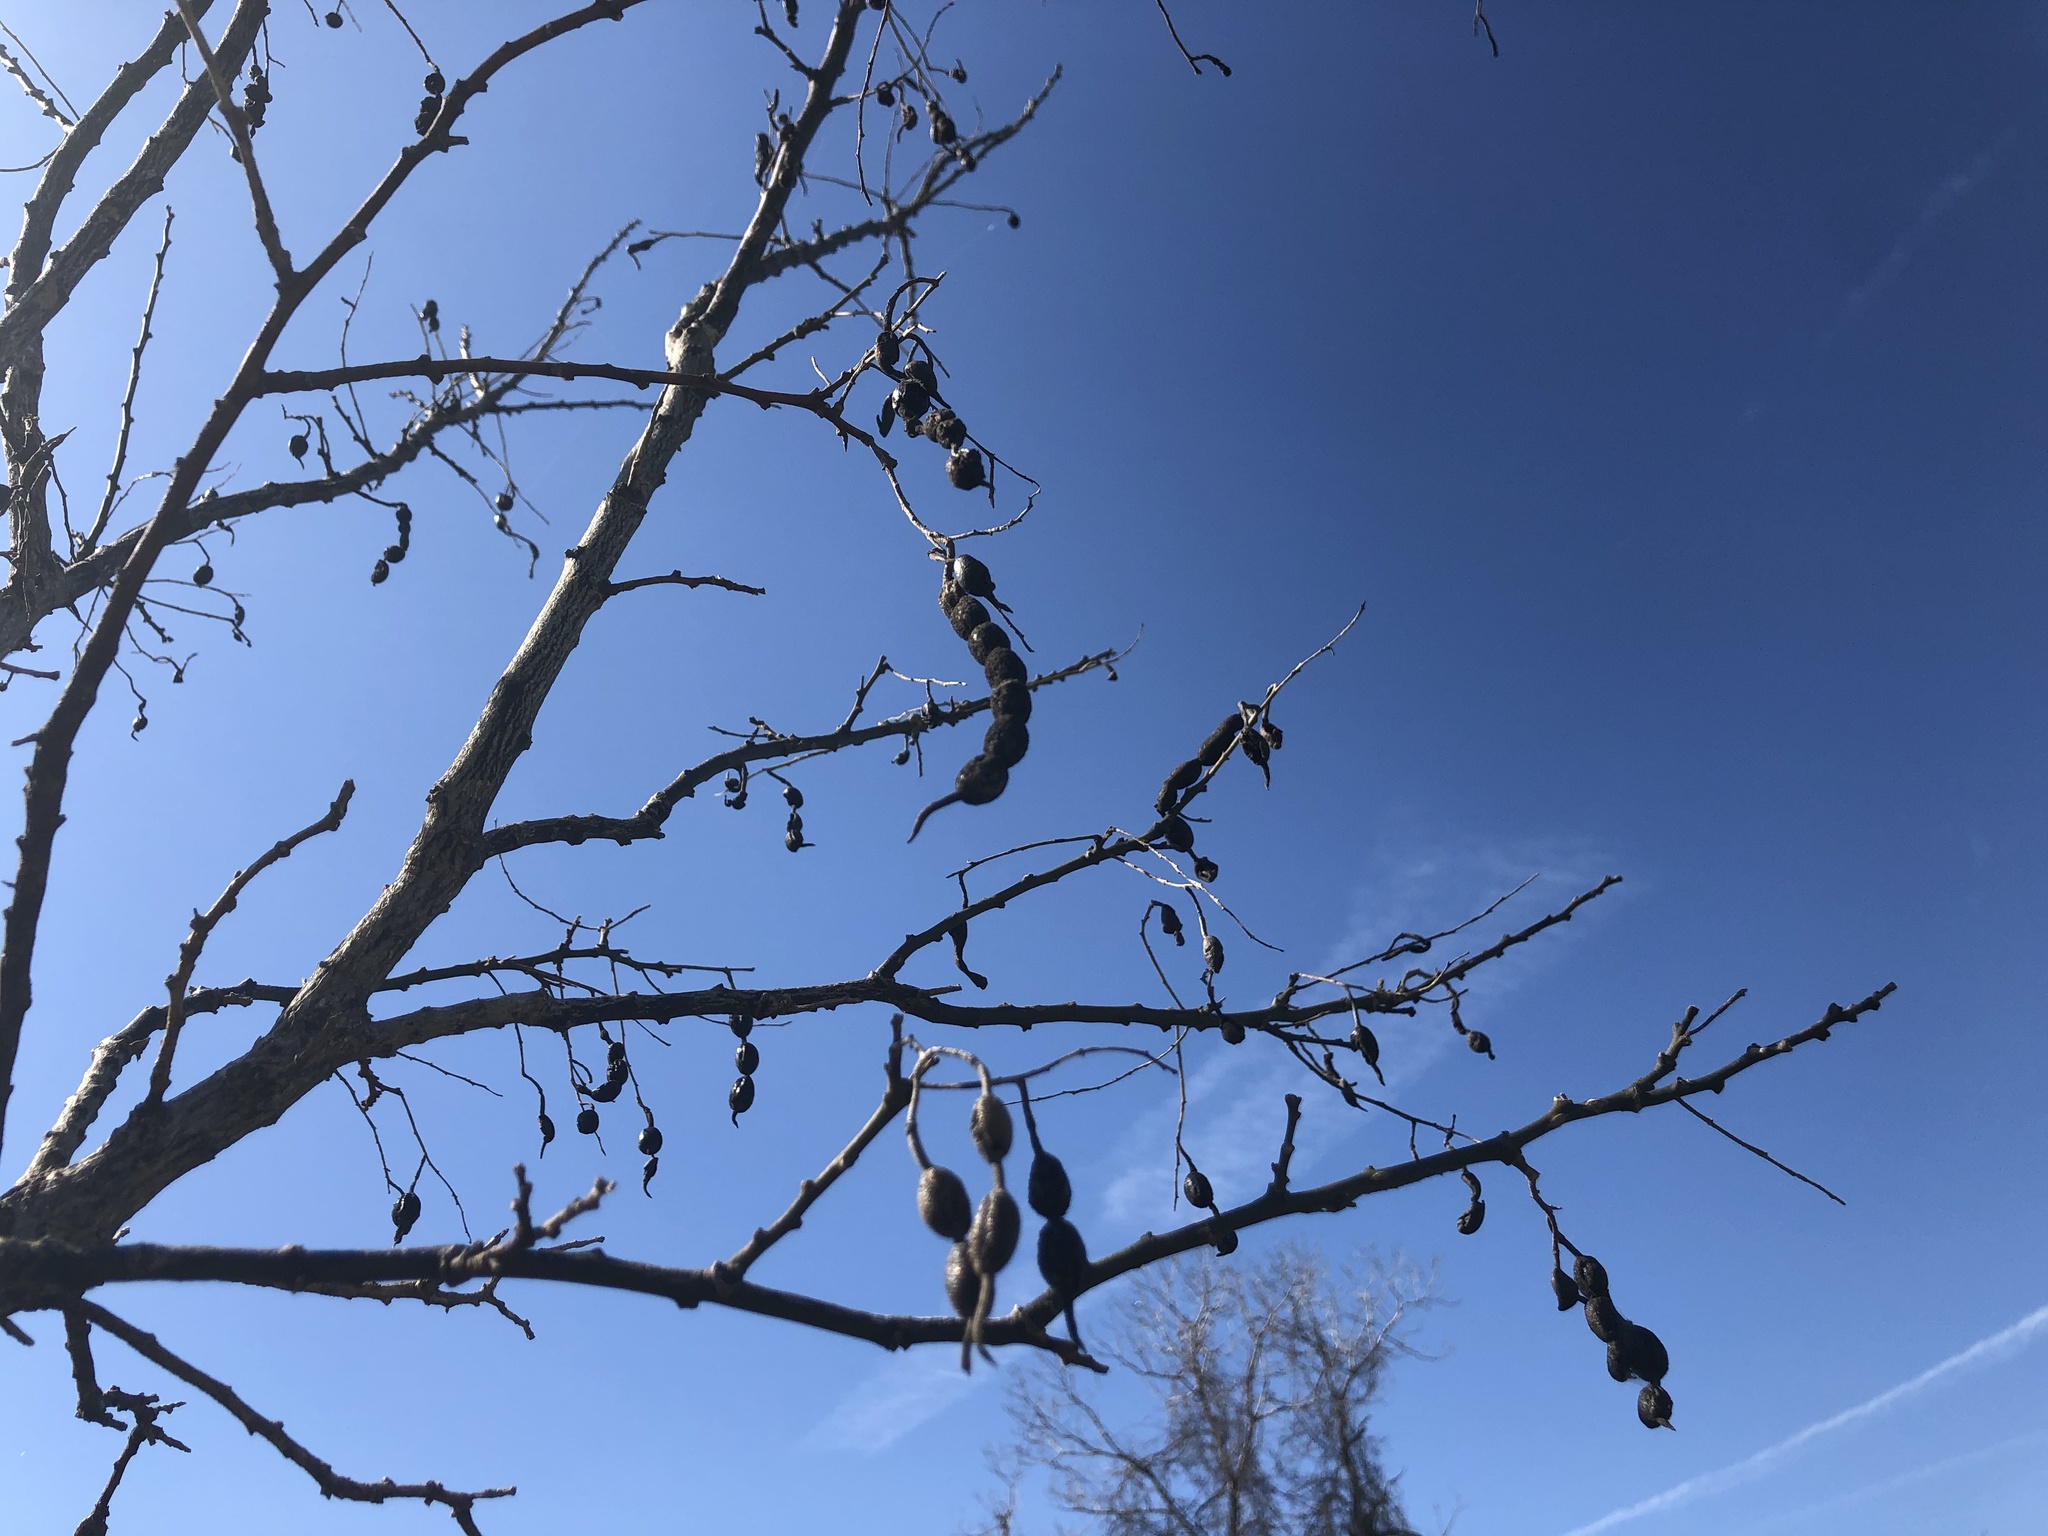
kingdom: Plantae
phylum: Tracheophyta
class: Magnoliopsida
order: Fabales
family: Fabaceae
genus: Styphnolobium
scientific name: Styphnolobium affine
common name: Texas sophora
